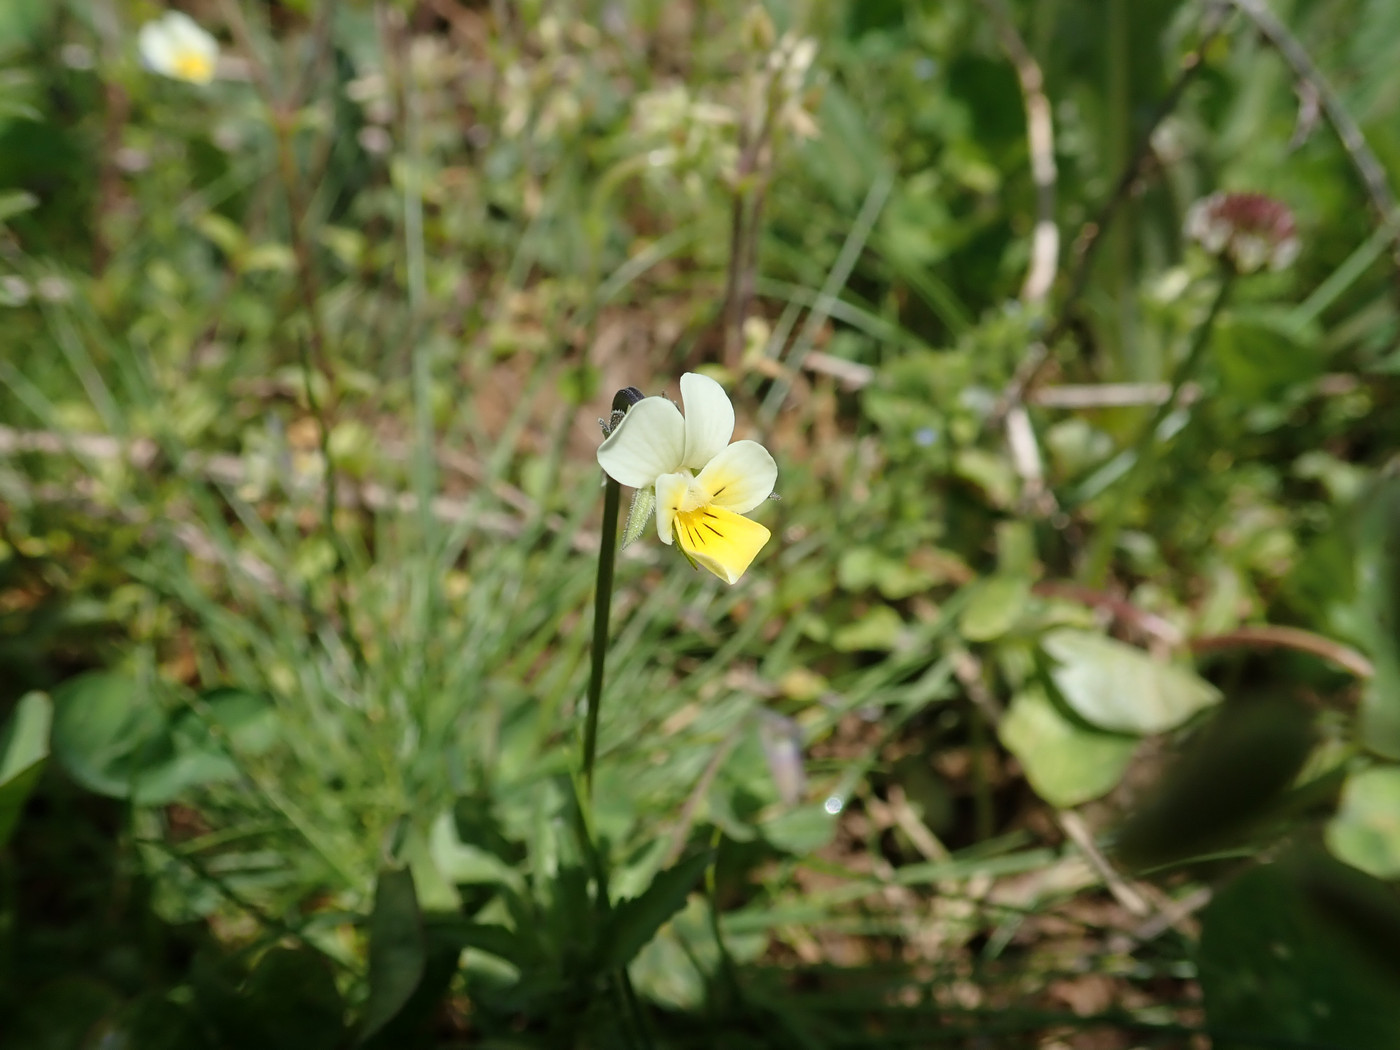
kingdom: Plantae
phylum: Tracheophyta
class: Magnoliopsida
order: Malpighiales
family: Violaceae
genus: Viola
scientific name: Viola arvensis
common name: Field pansy
